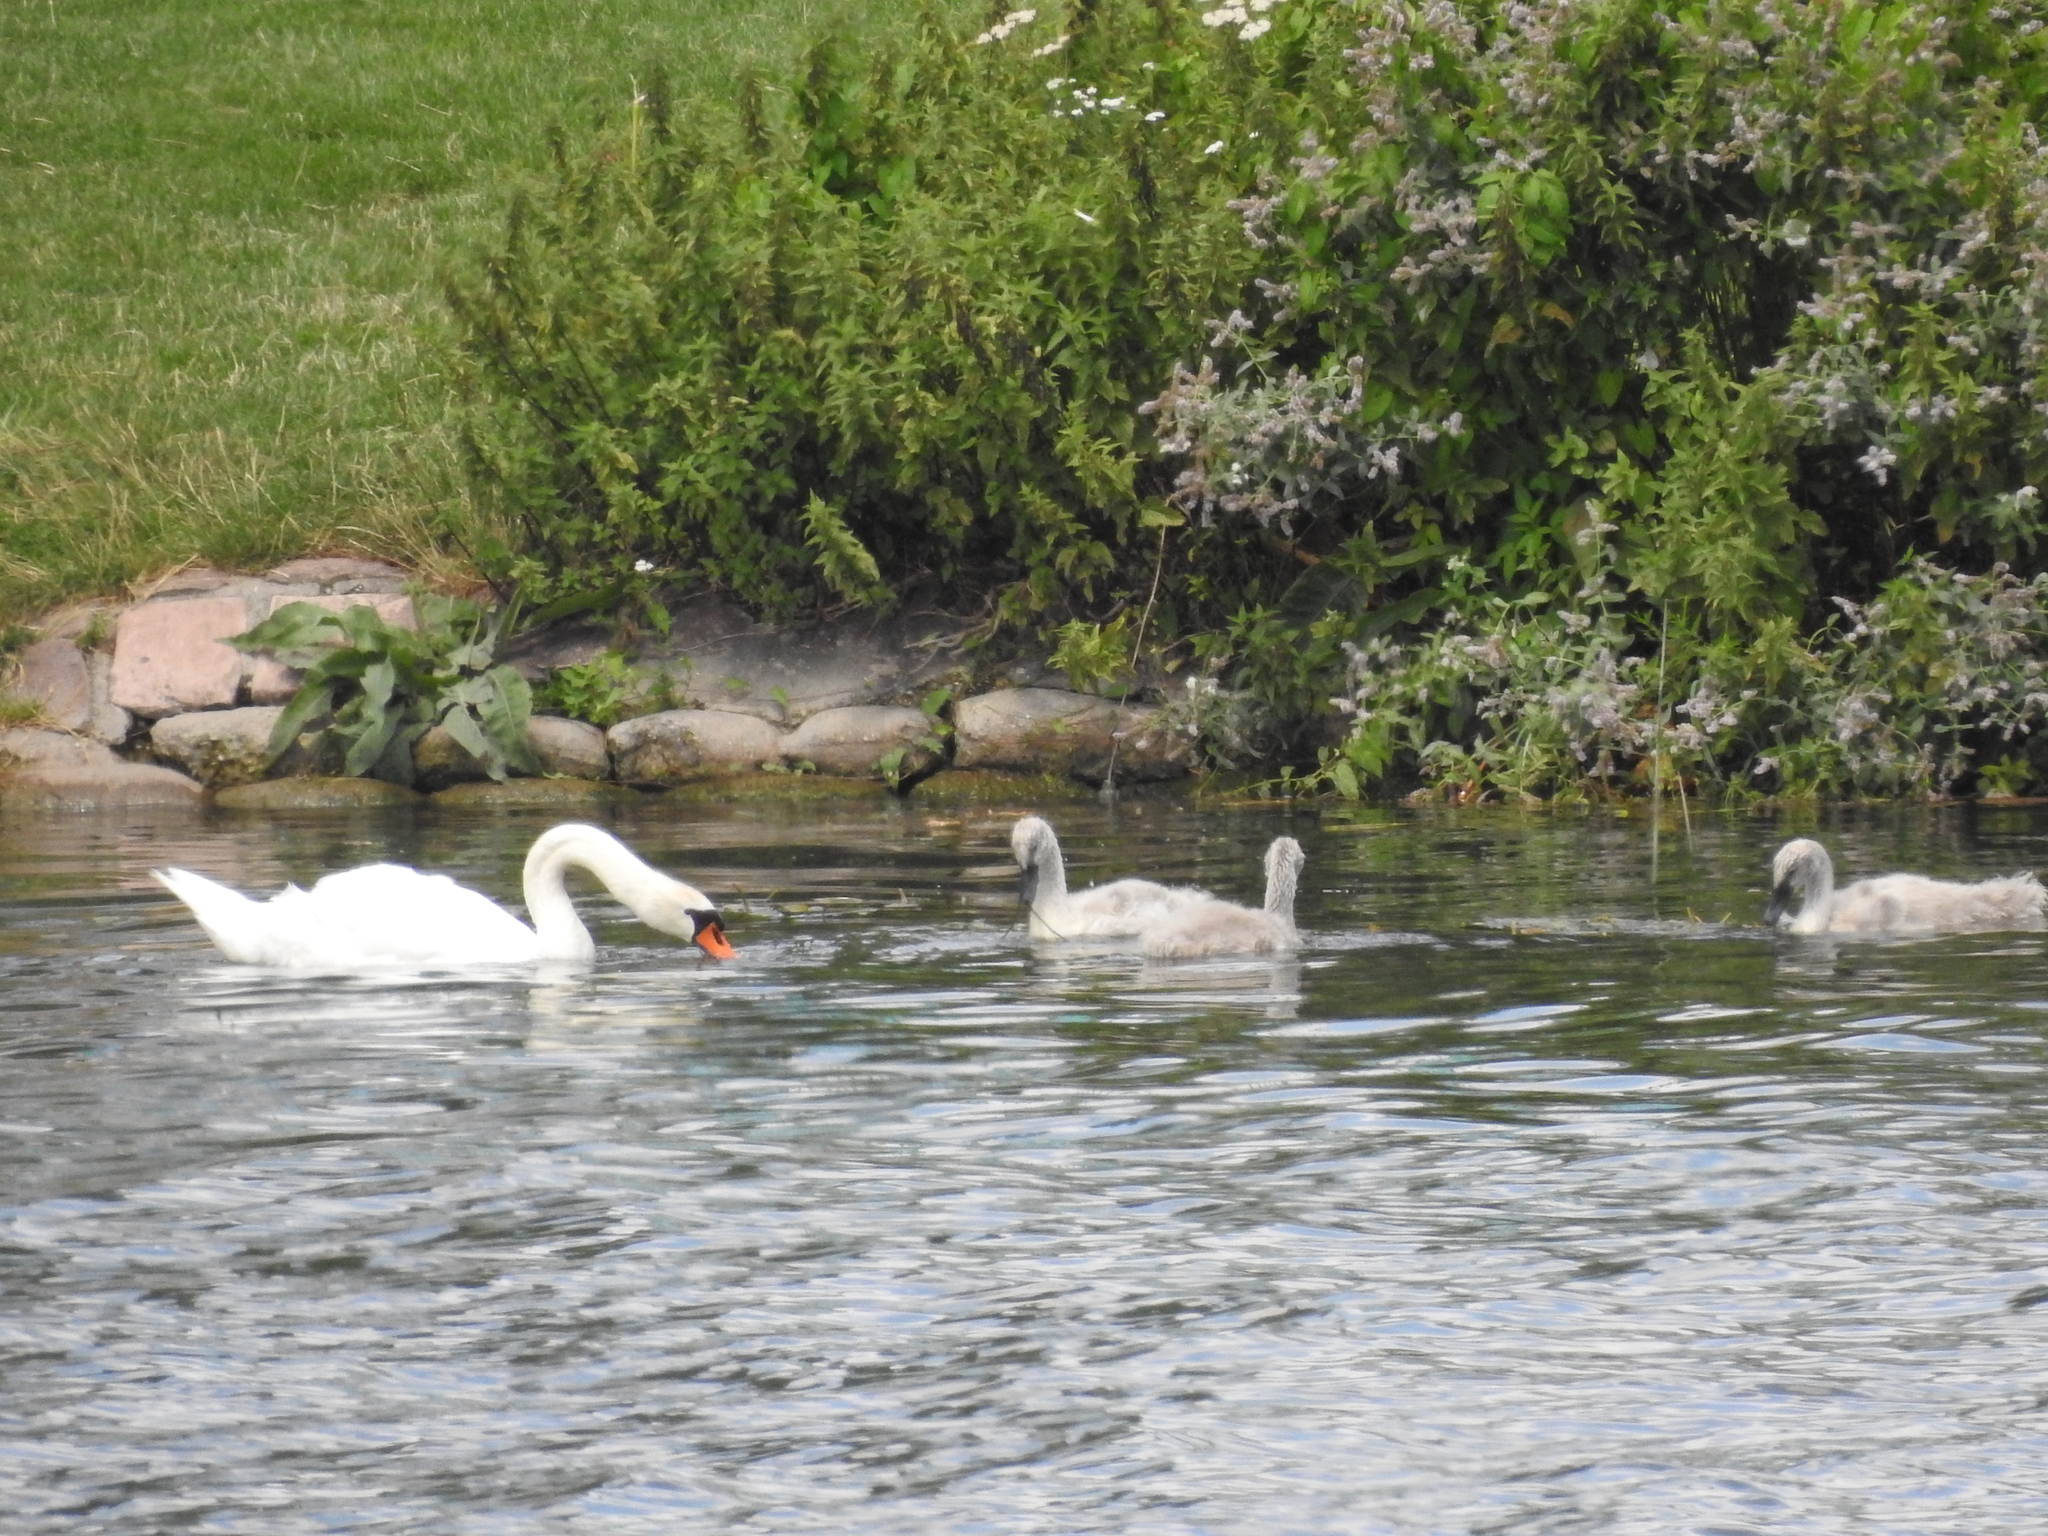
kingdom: Animalia
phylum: Chordata
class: Aves
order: Anseriformes
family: Anatidae
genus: Cygnus
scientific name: Cygnus olor
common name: Mute swan
